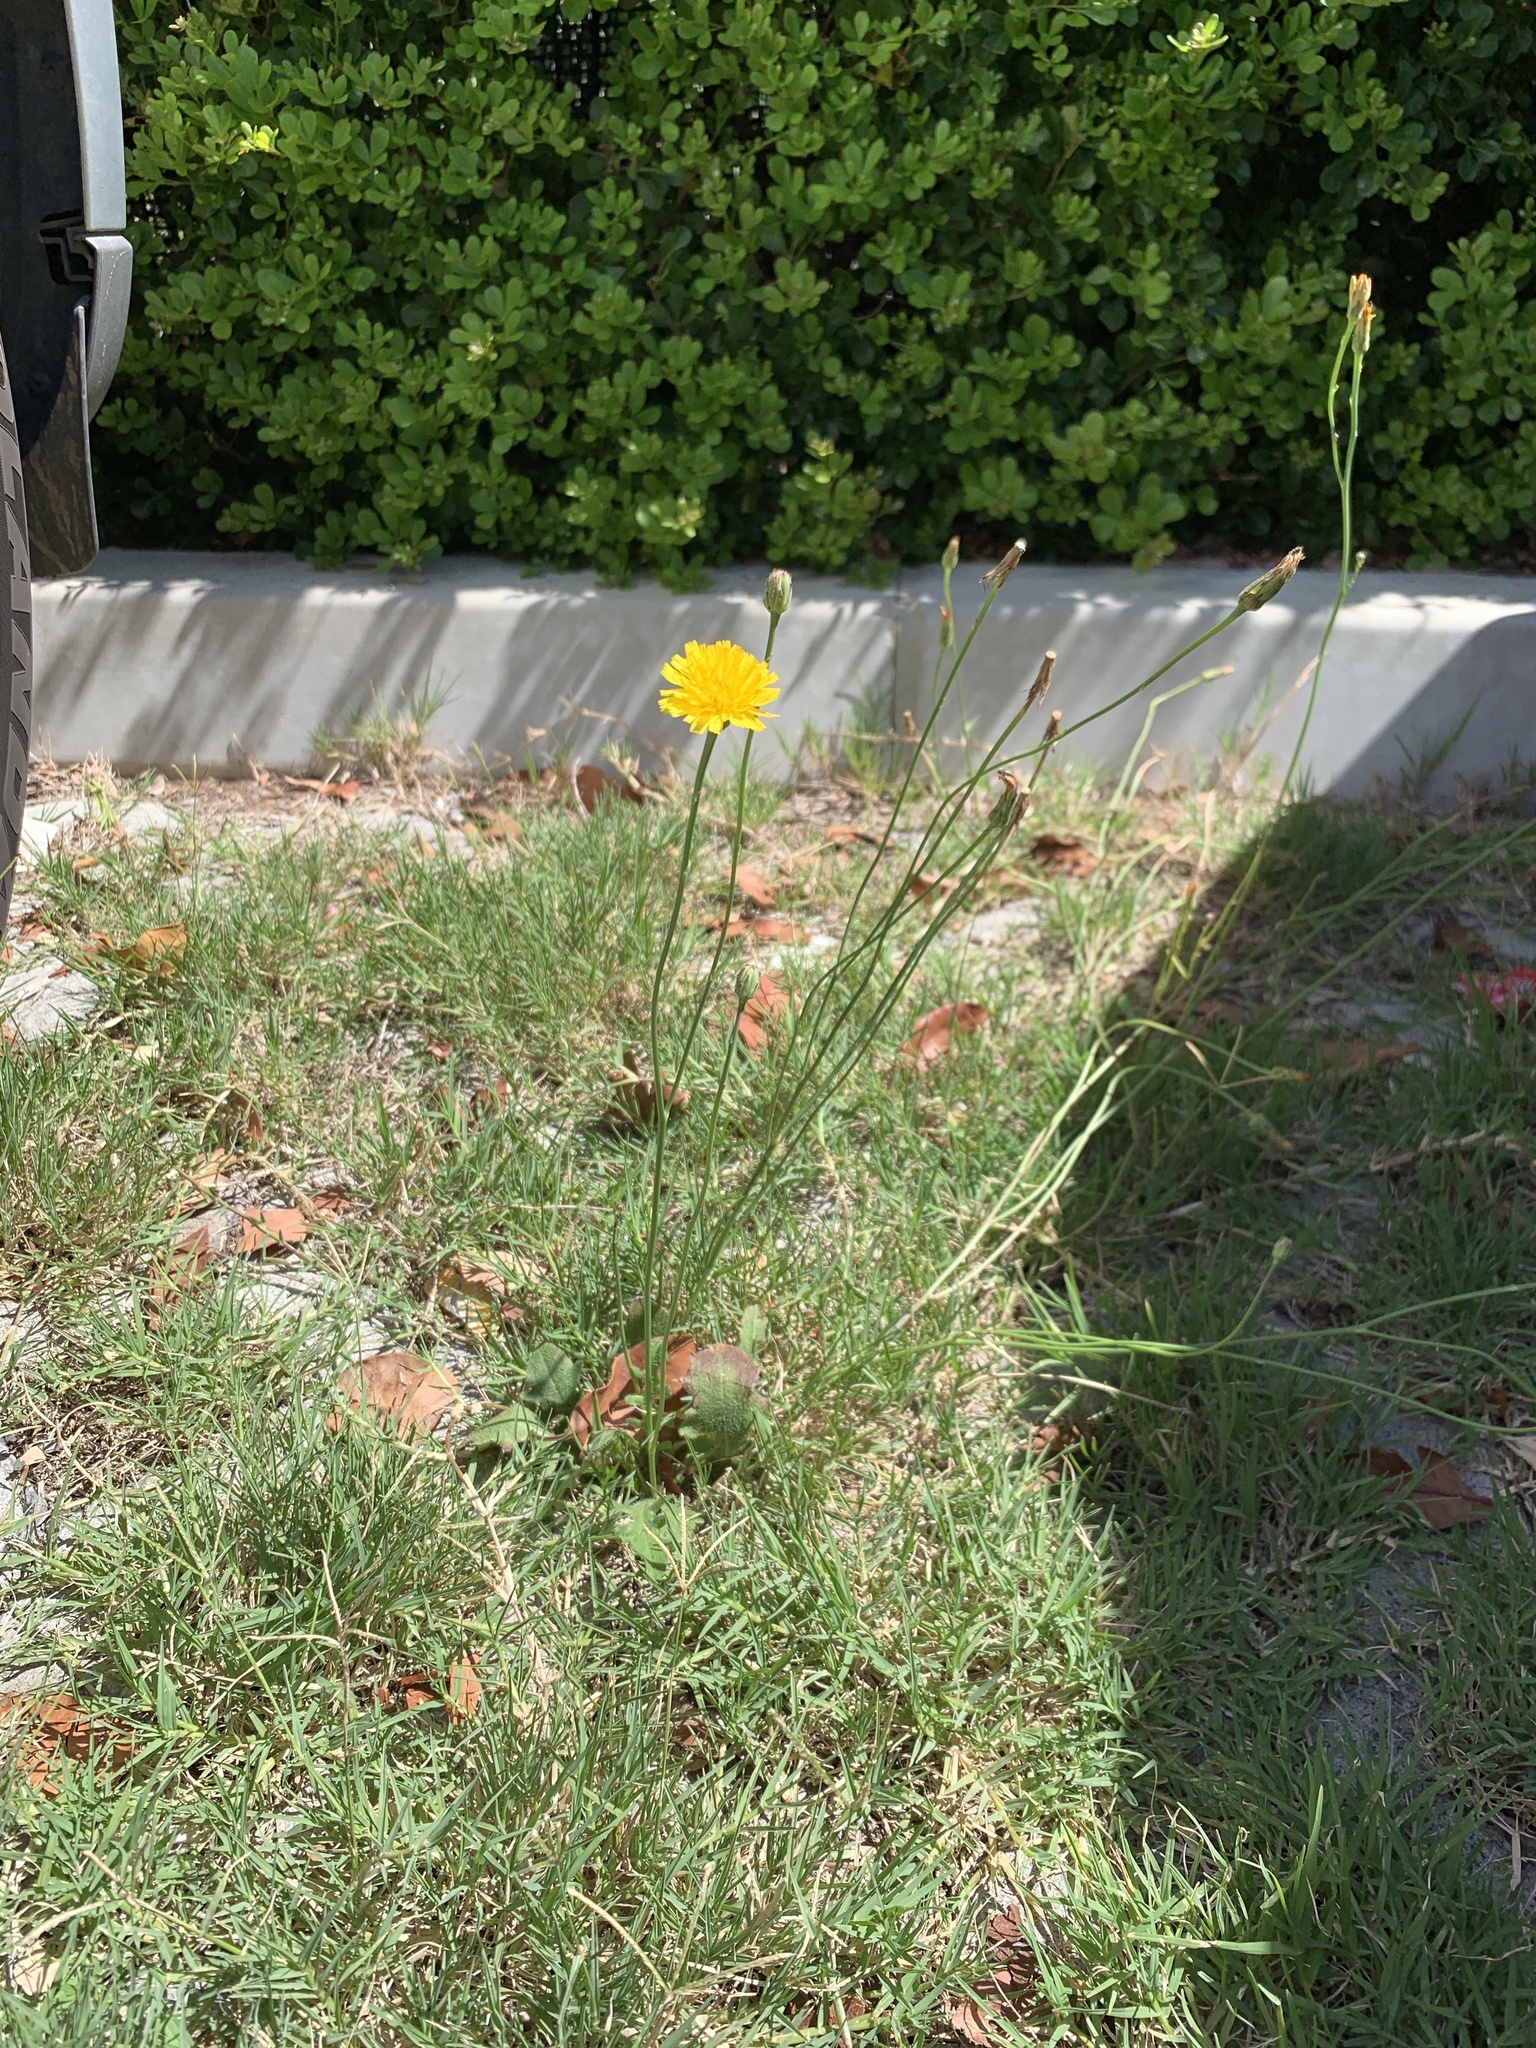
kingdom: Plantae
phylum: Tracheophyta
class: Magnoliopsida
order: Asterales
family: Asteraceae
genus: Hypochaeris
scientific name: Hypochaeris radicata
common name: Flatweed
